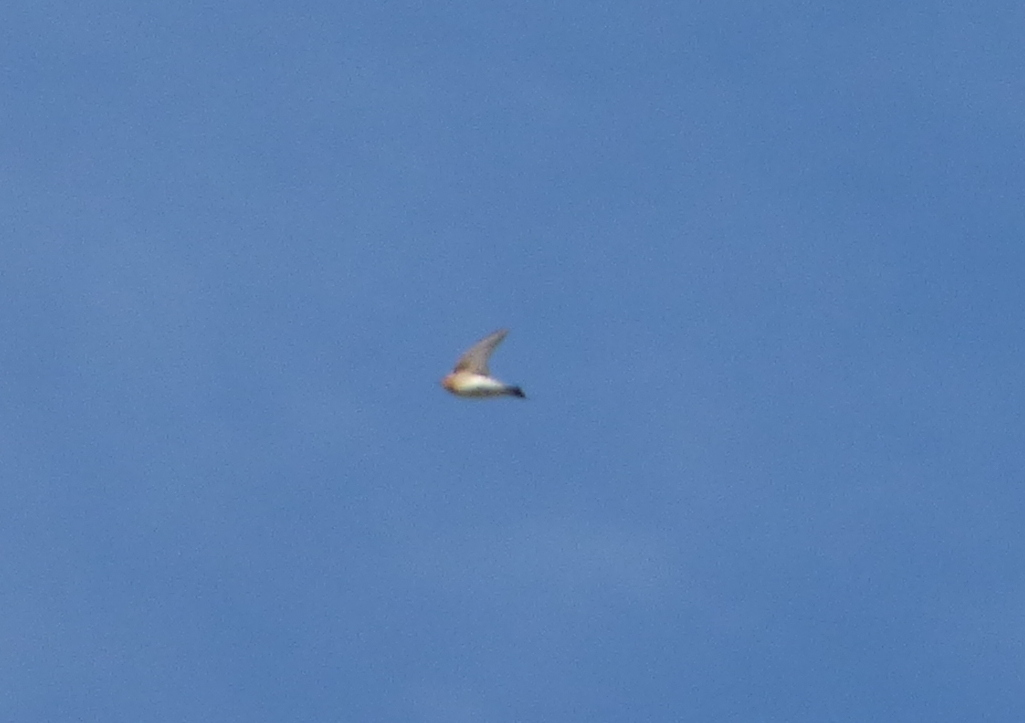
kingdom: Animalia
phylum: Chordata
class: Aves
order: Passeriformes
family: Hirundinidae
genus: Alopochelidon
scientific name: Alopochelidon fucata
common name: Tawny-headed swallow
